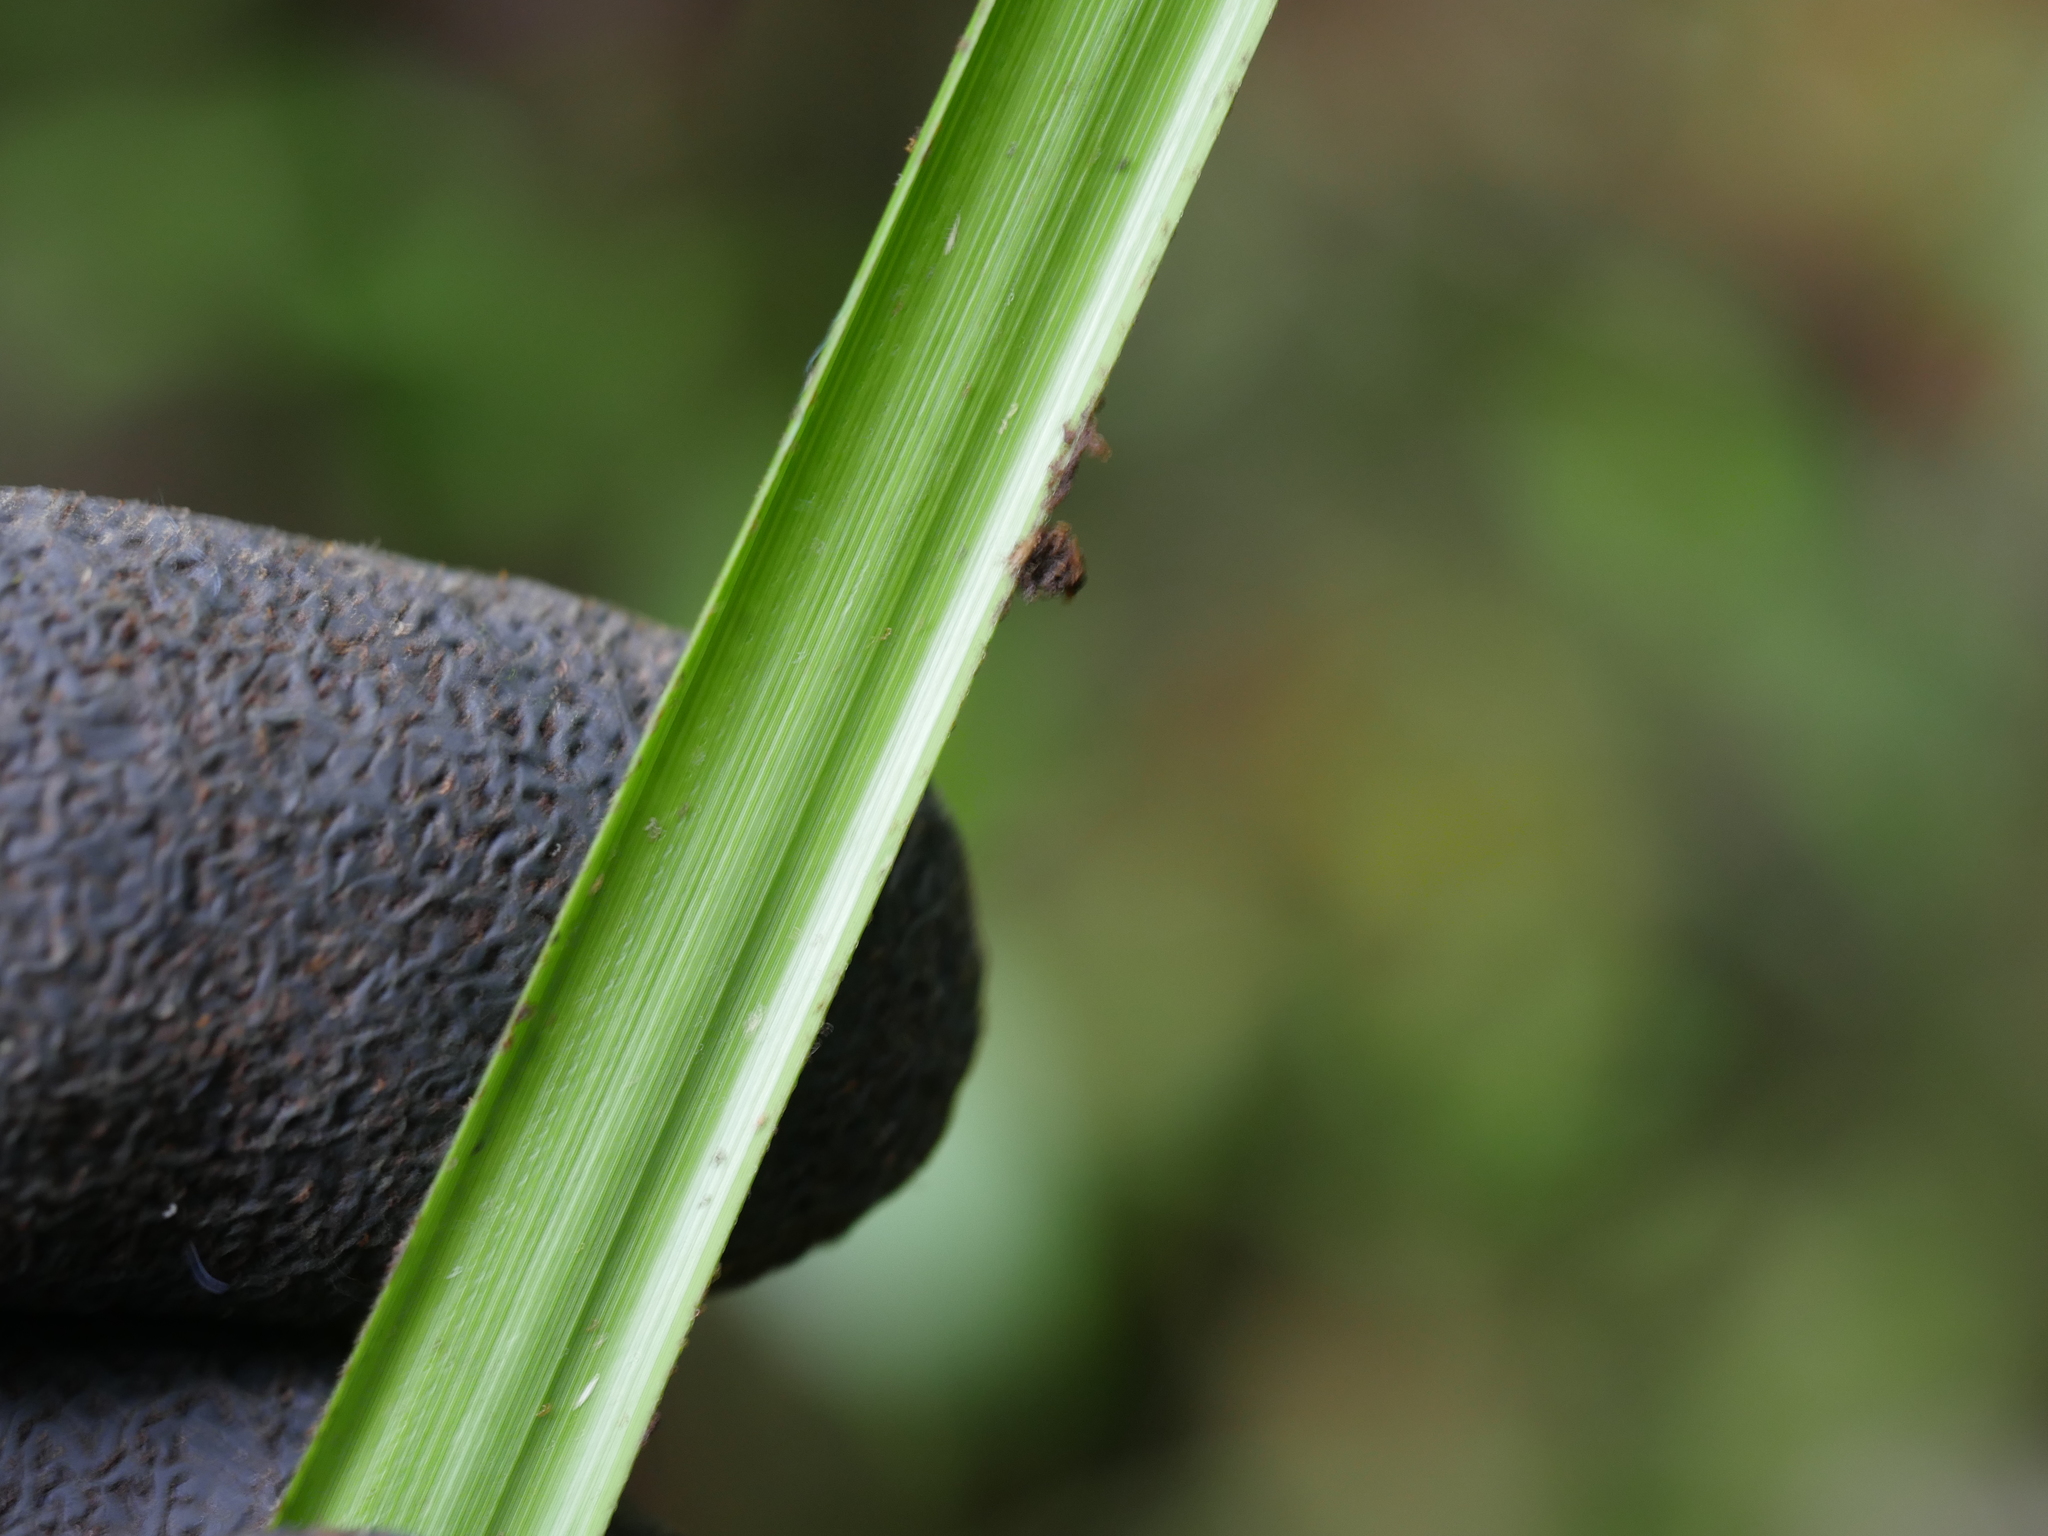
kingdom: Plantae
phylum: Tracheophyta
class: Liliopsida
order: Poales
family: Cyperaceae
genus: Gahnia
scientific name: Gahnia pauciflora
